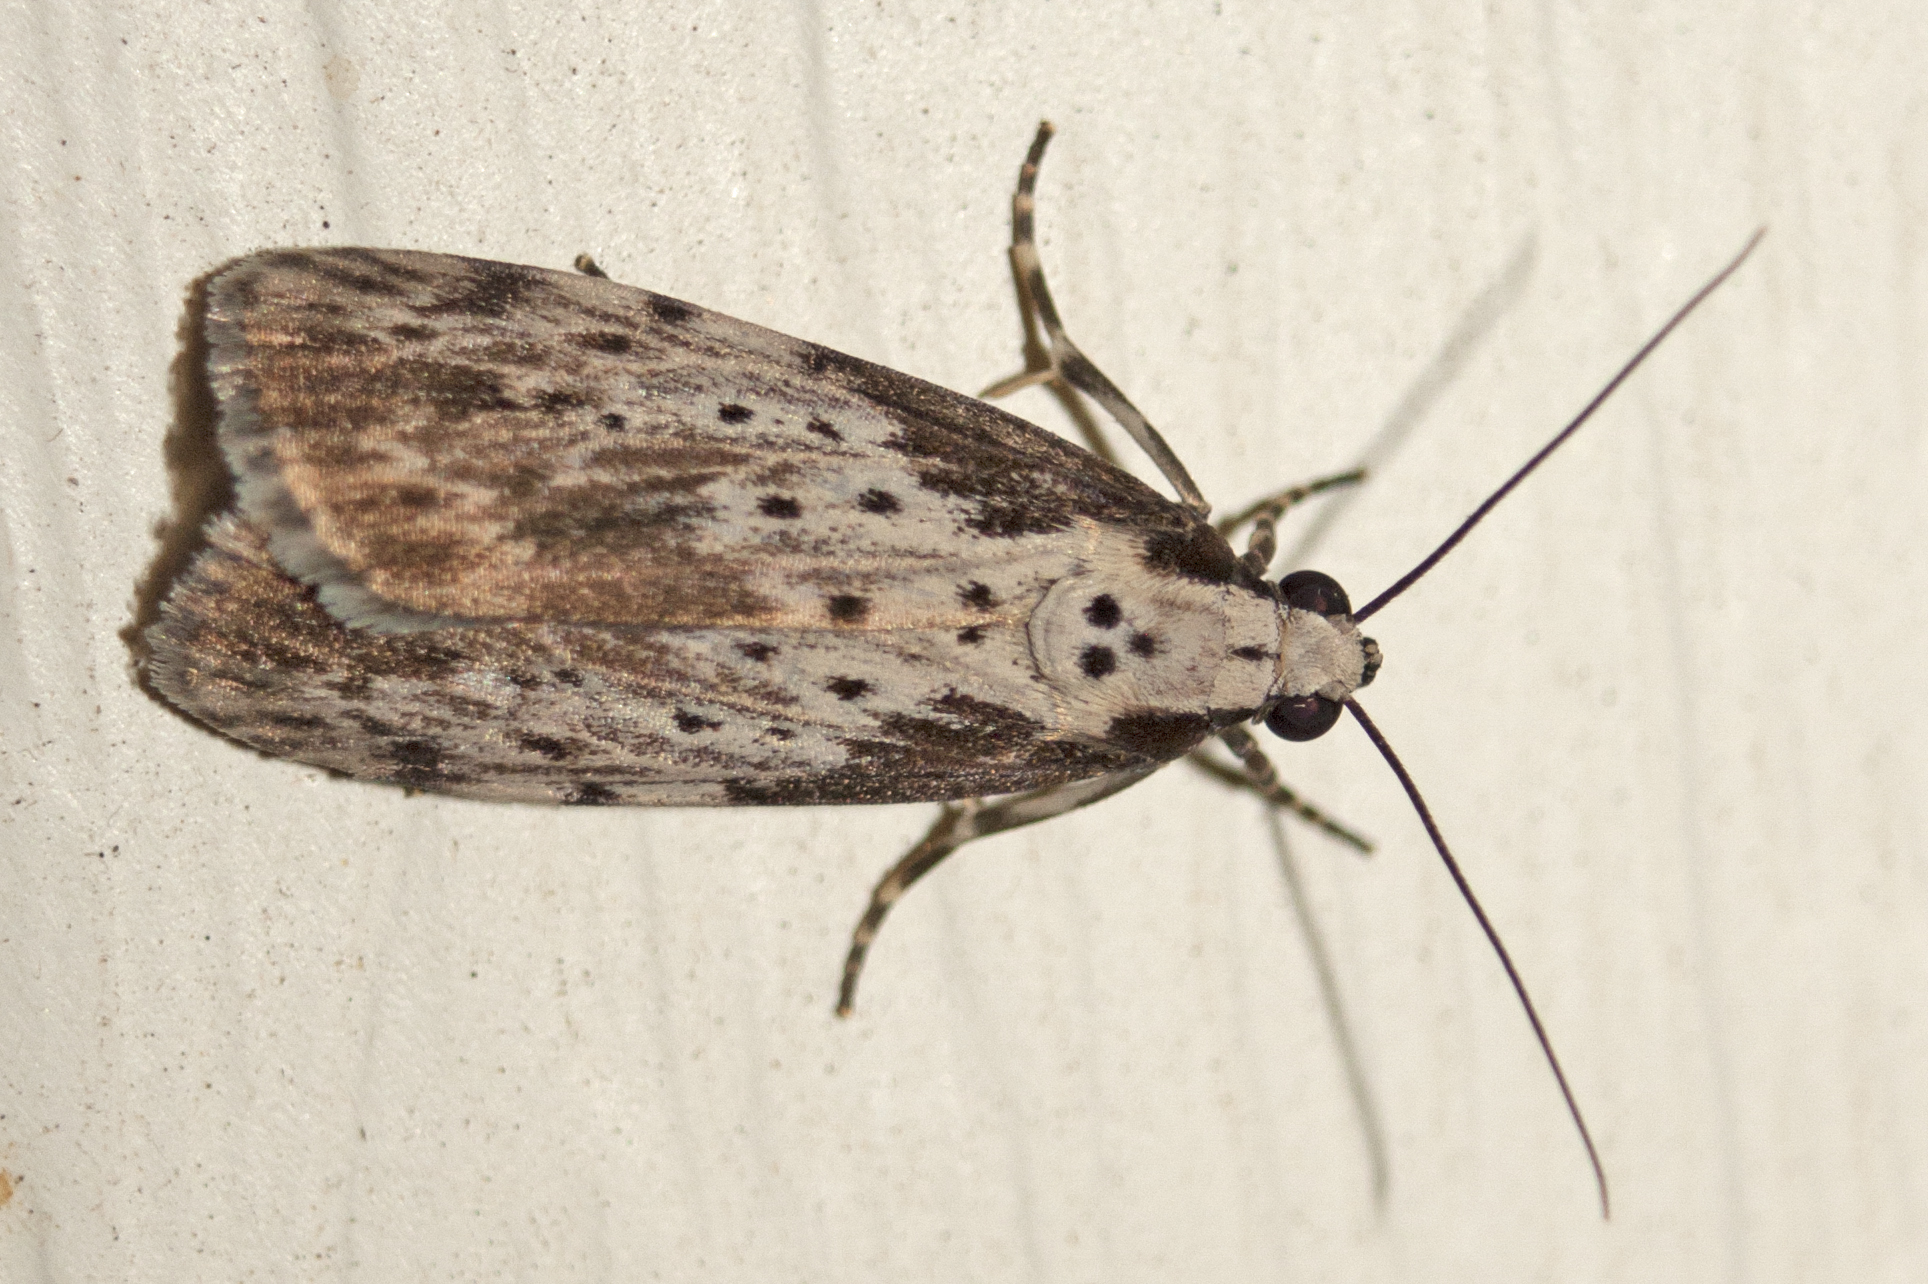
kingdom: Animalia
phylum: Arthropoda
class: Insecta
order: Lepidoptera
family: Erebidae
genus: Digama
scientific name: Digama Sommeria marmorea
